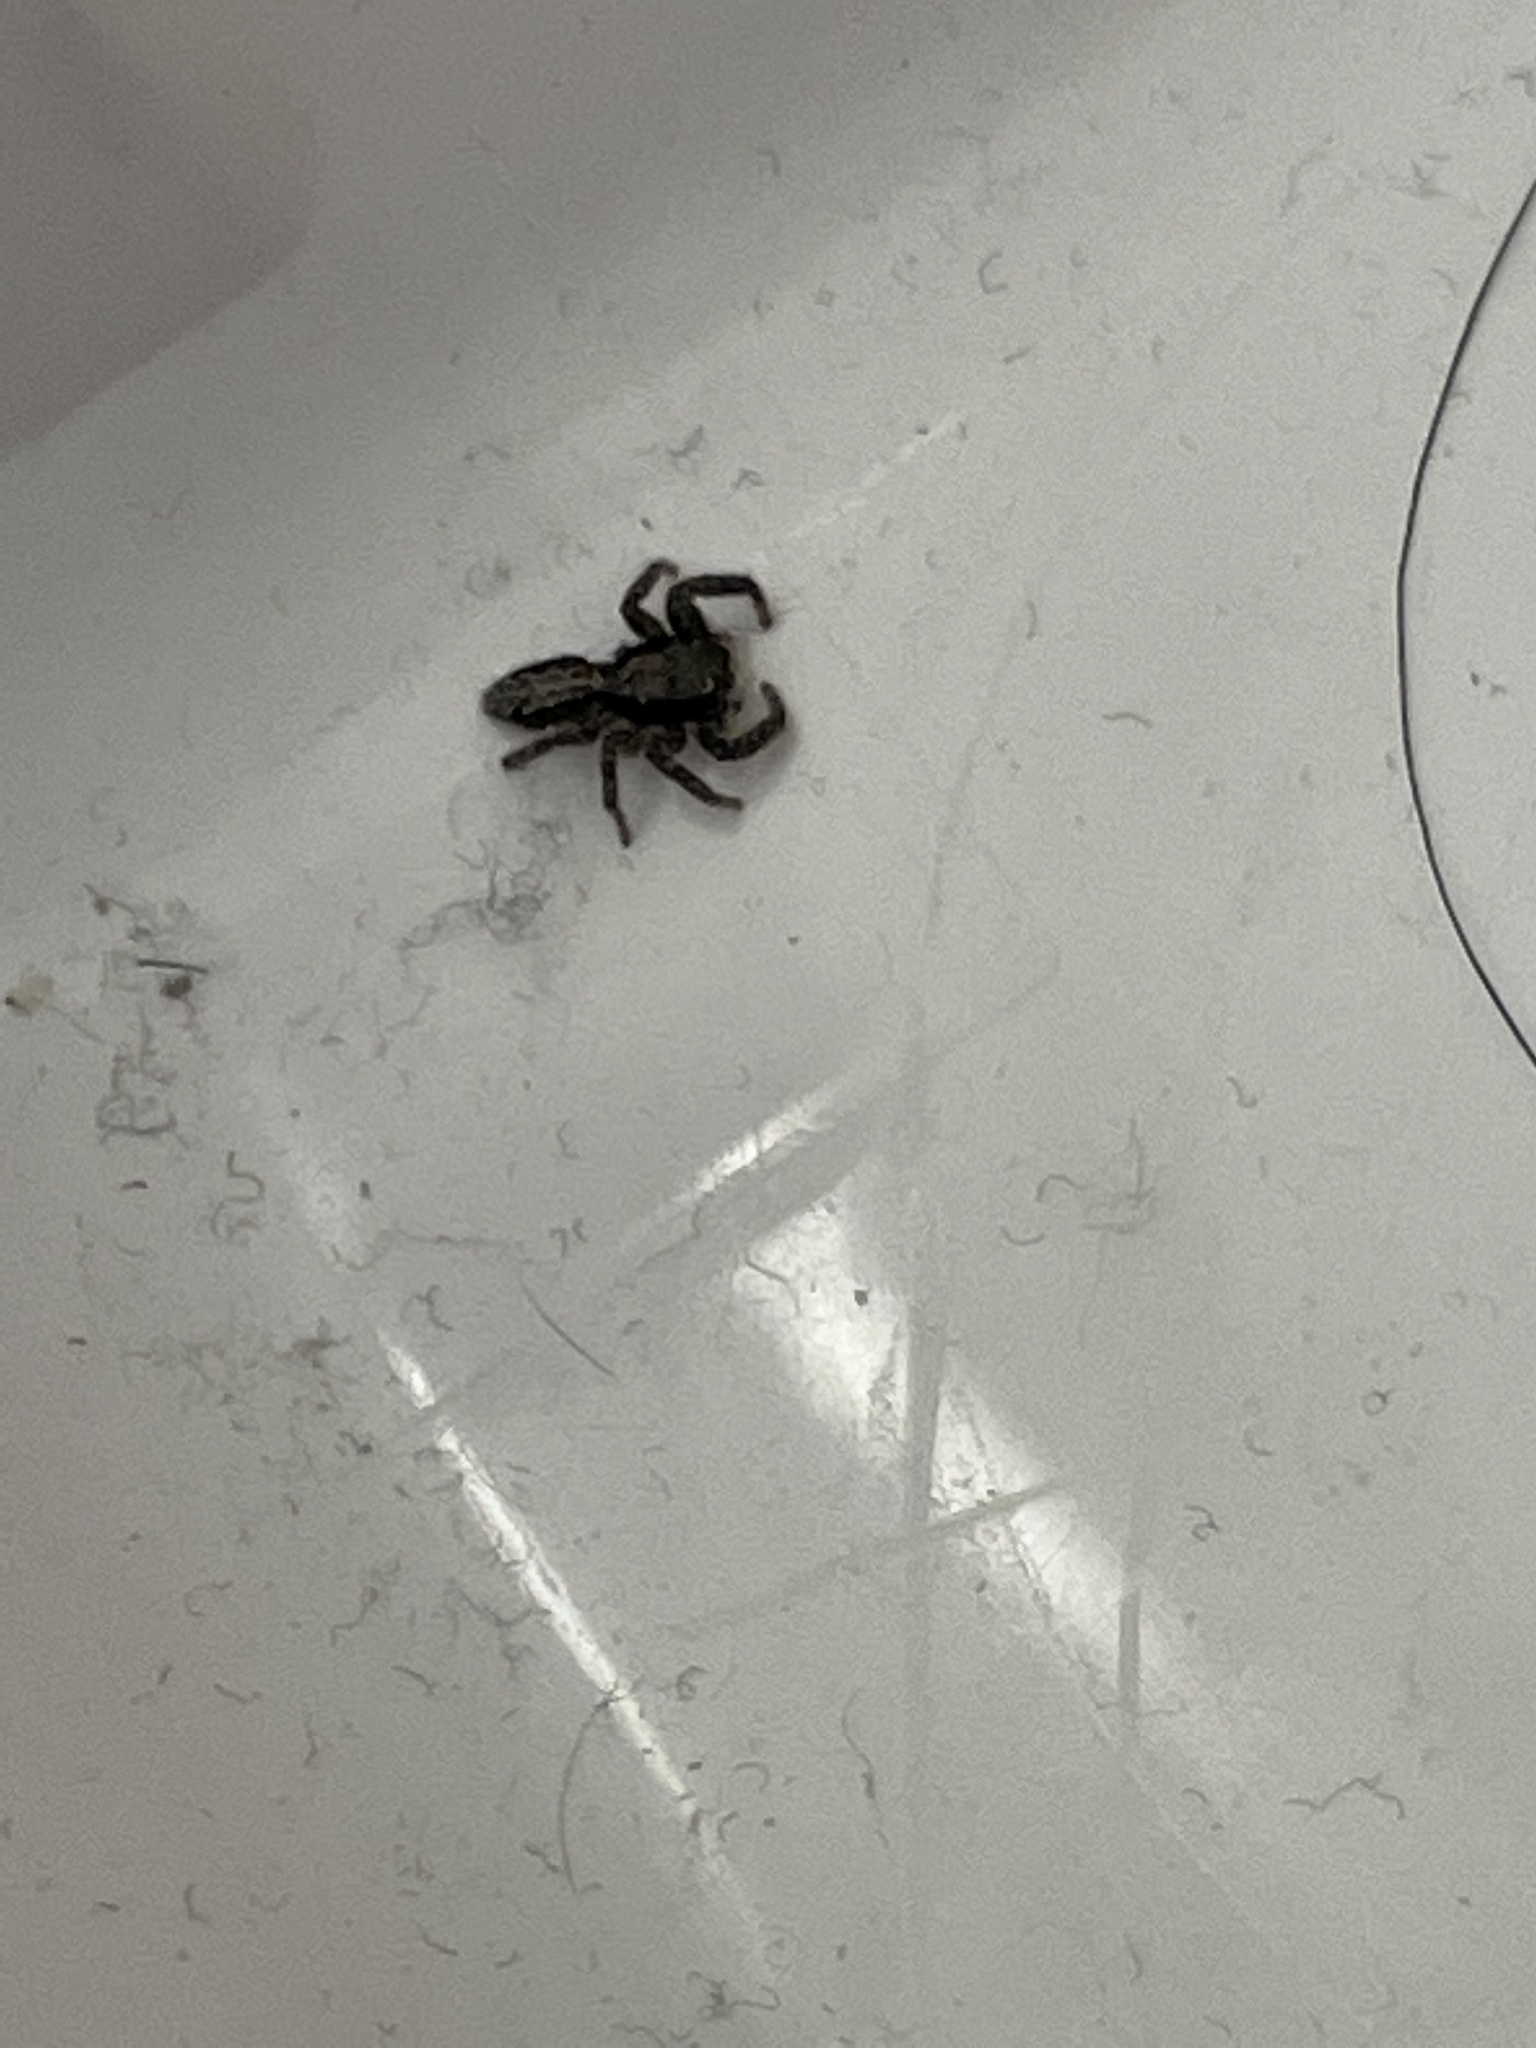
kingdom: Animalia
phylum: Arthropoda
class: Arachnida
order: Araneae
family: Salticidae
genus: Platycryptus
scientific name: Platycryptus californicus
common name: Jumping spiders
